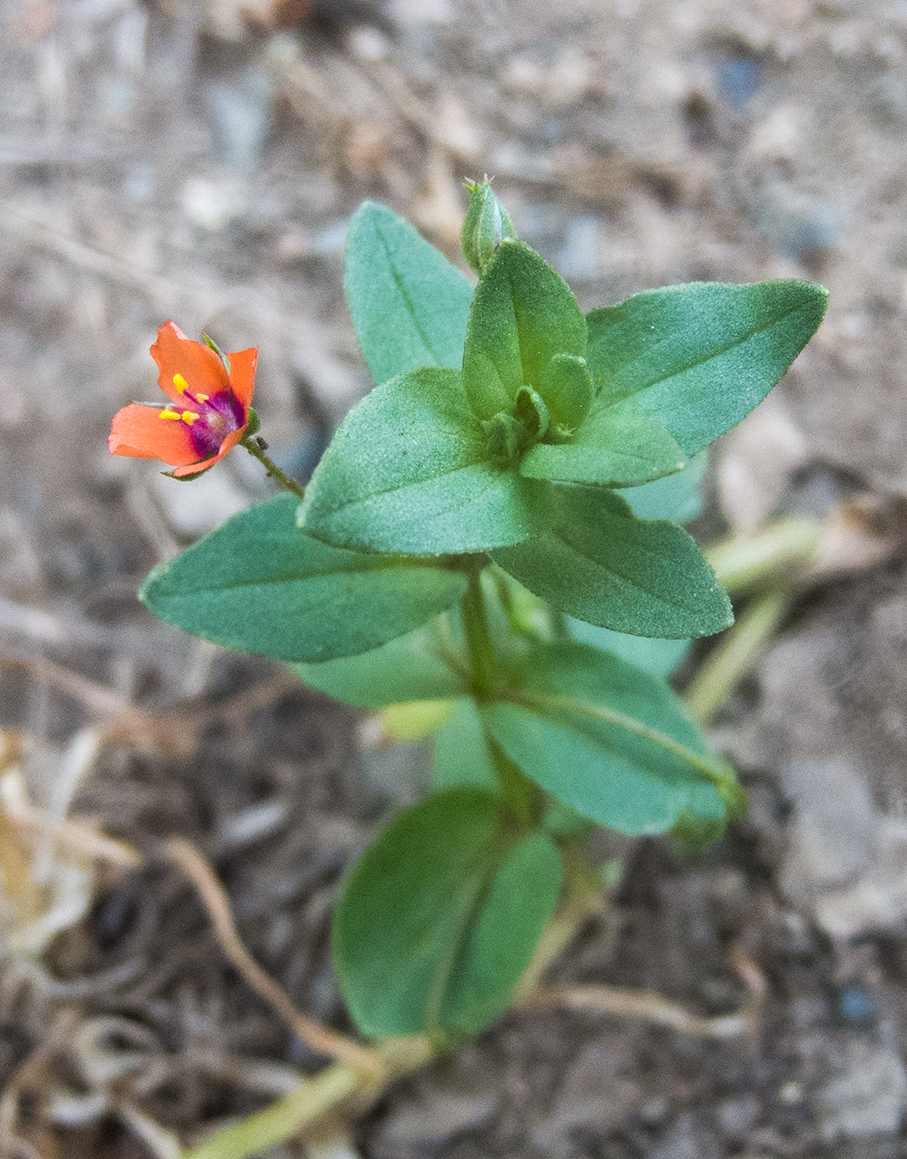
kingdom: Plantae
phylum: Tracheophyta
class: Magnoliopsida
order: Ericales
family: Primulaceae
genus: Lysimachia
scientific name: Lysimachia arvensis
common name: Scarlet pimpernel
